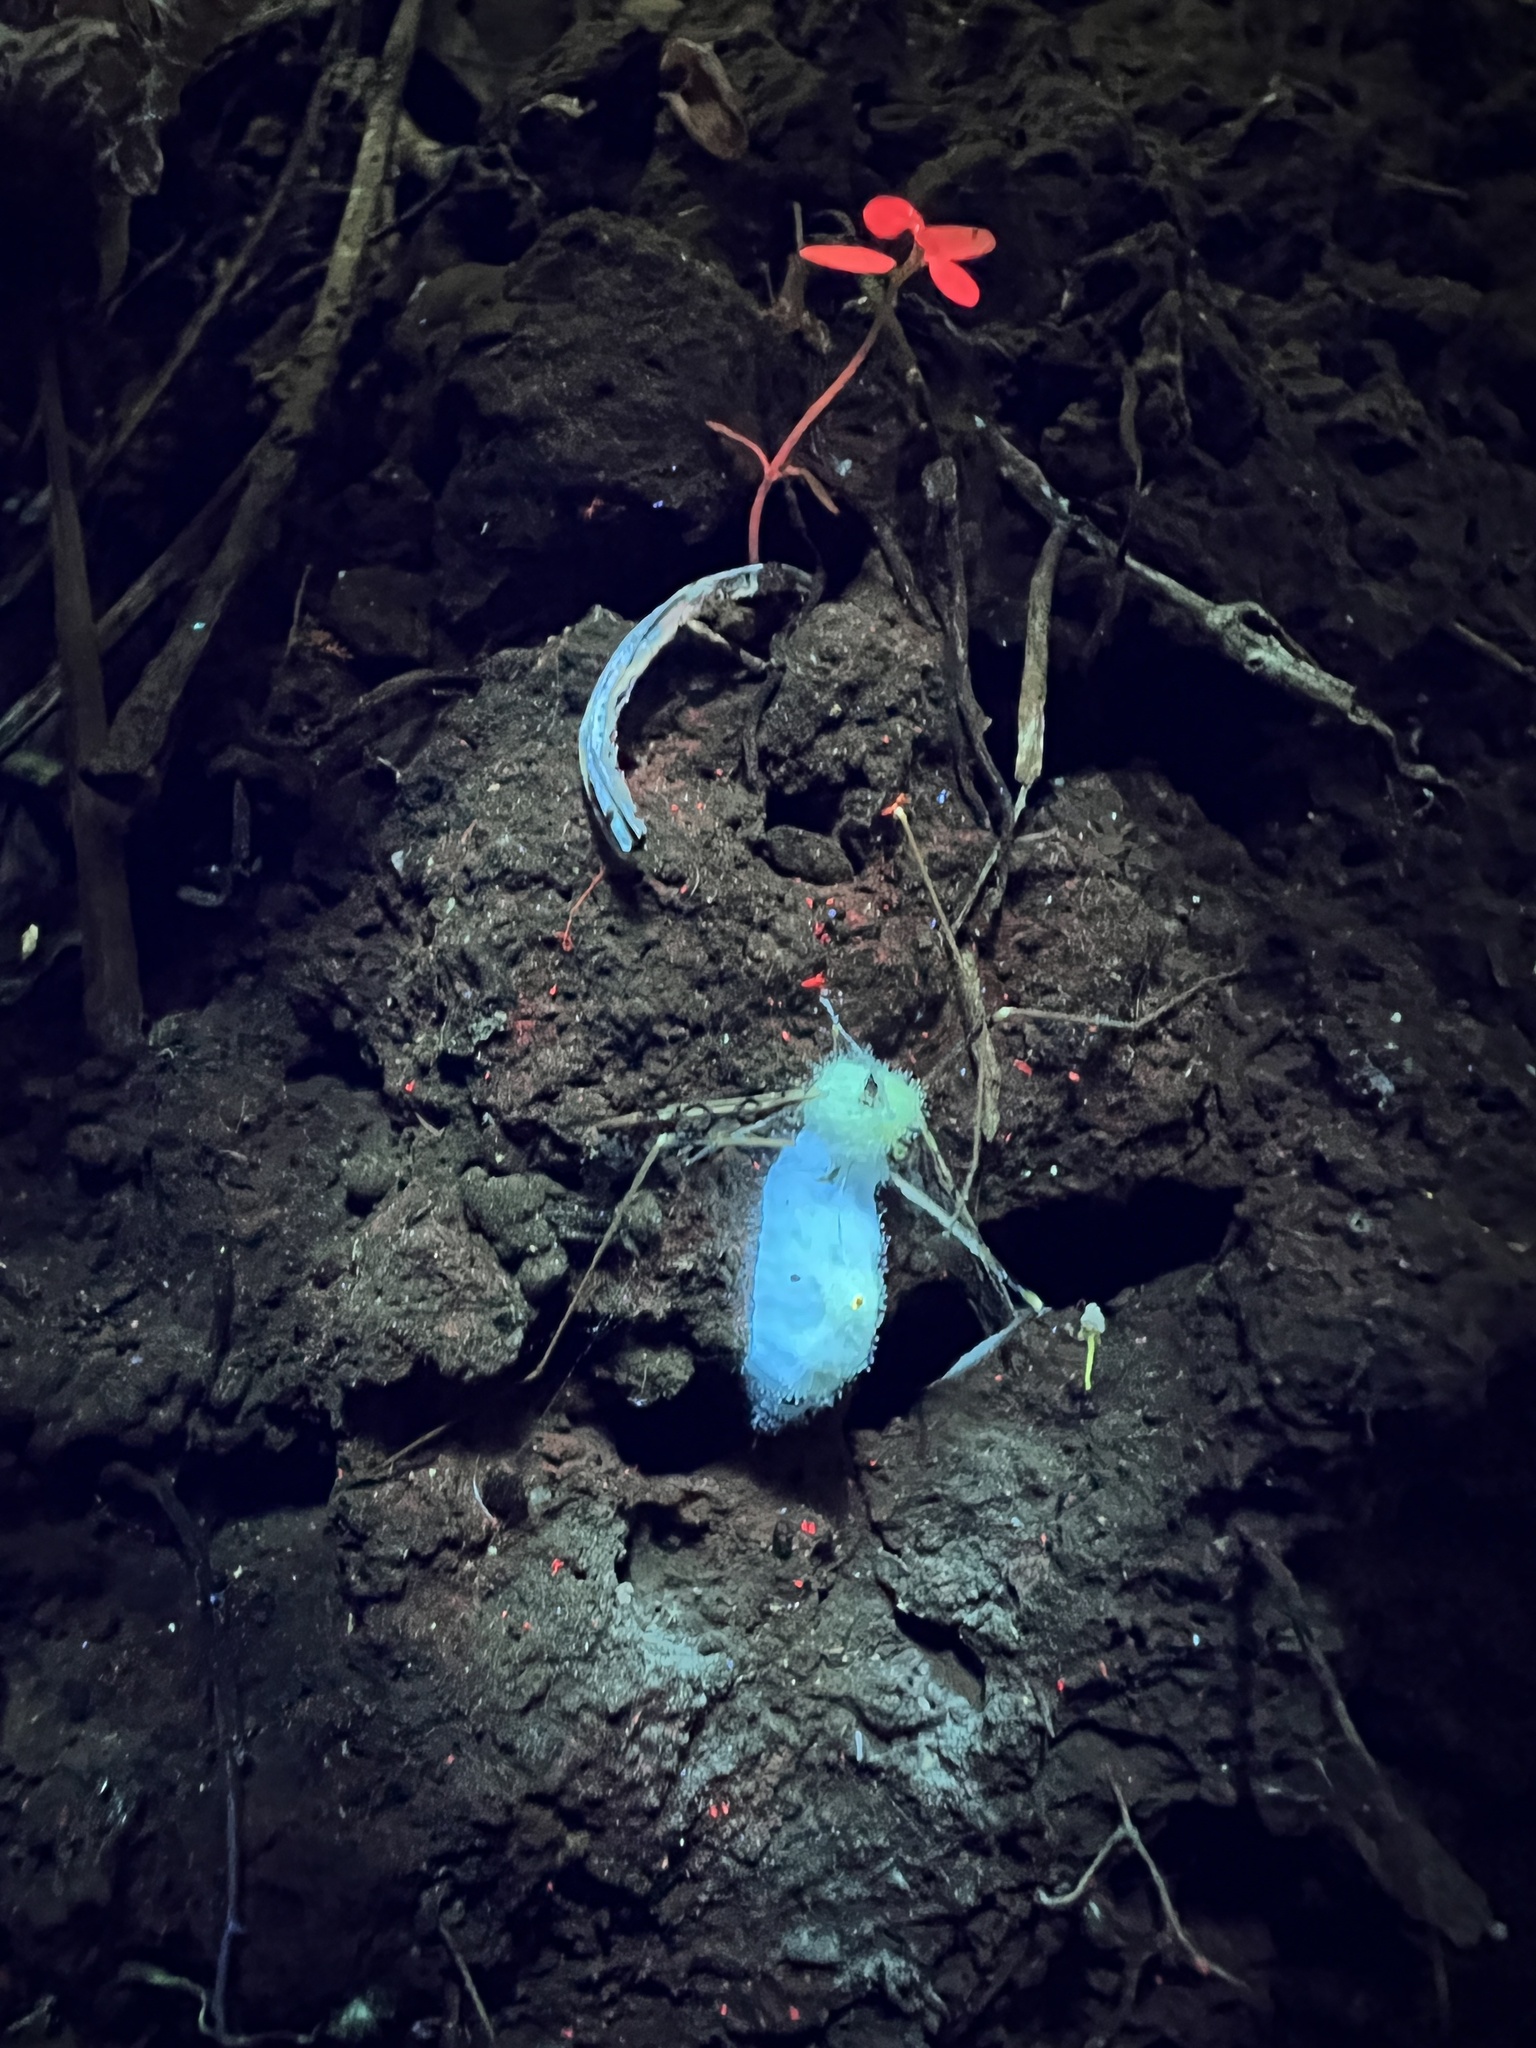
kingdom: Fungi
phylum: Entomophthoromycota
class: Entomophthoromycetes
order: Entomophthorales
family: Entomophthoraceae
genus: Erynia
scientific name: Erynia sepulchralis
